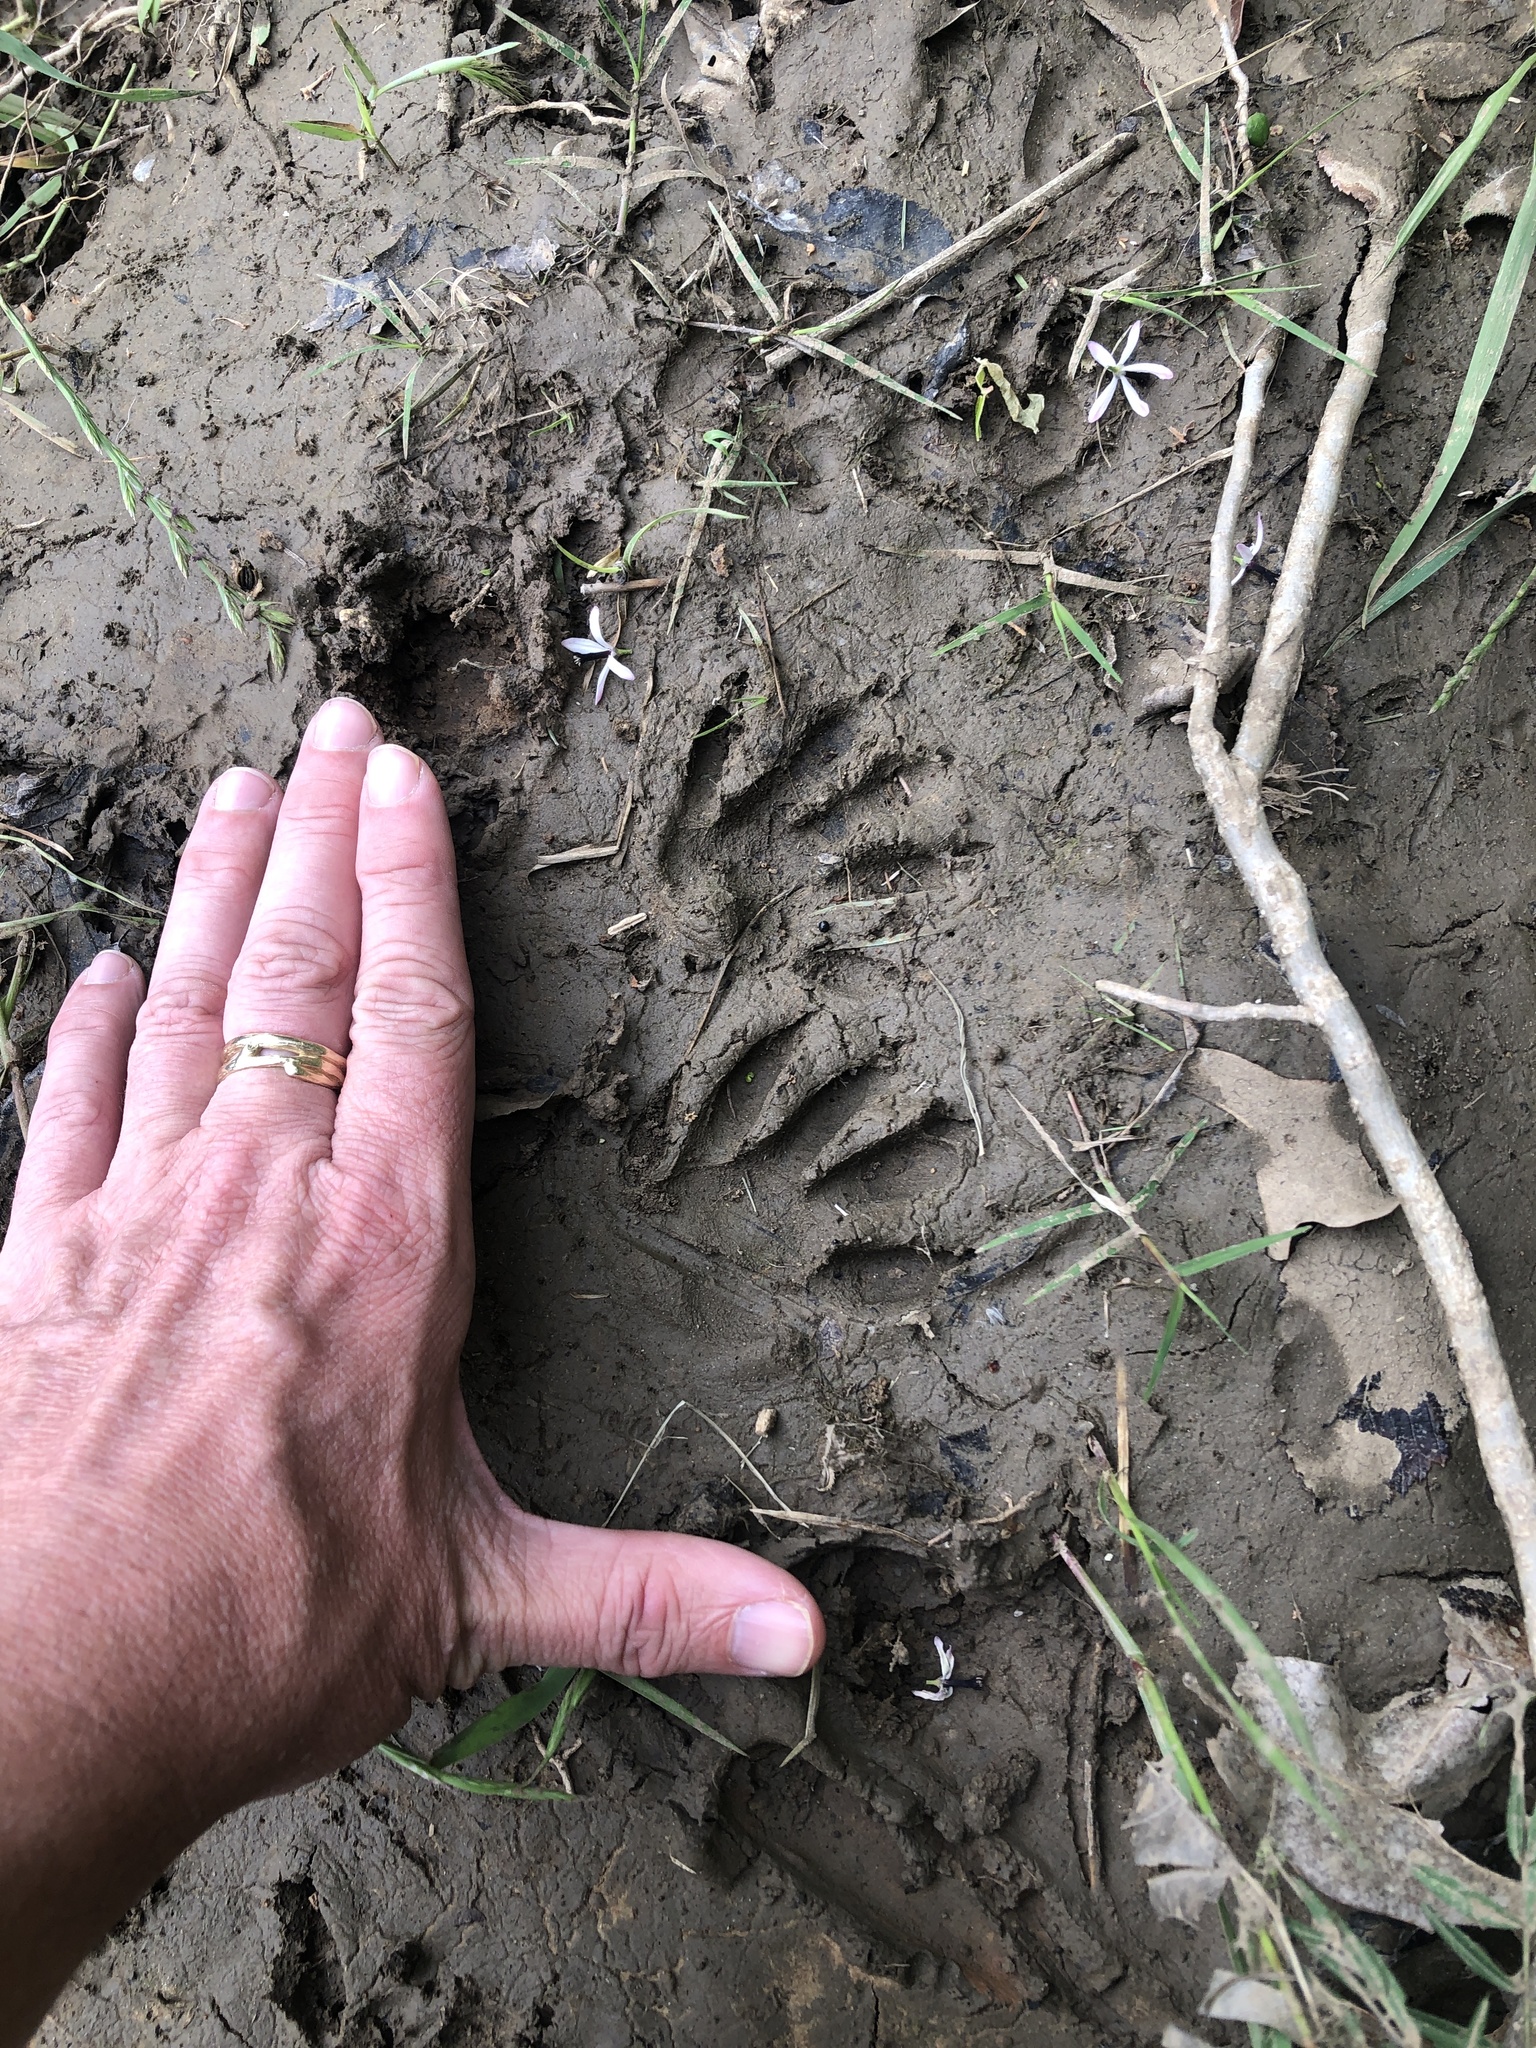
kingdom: Animalia
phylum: Chordata
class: Mammalia
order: Carnivora
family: Procyonidae
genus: Procyon
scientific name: Procyon lotor
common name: Raccoon
